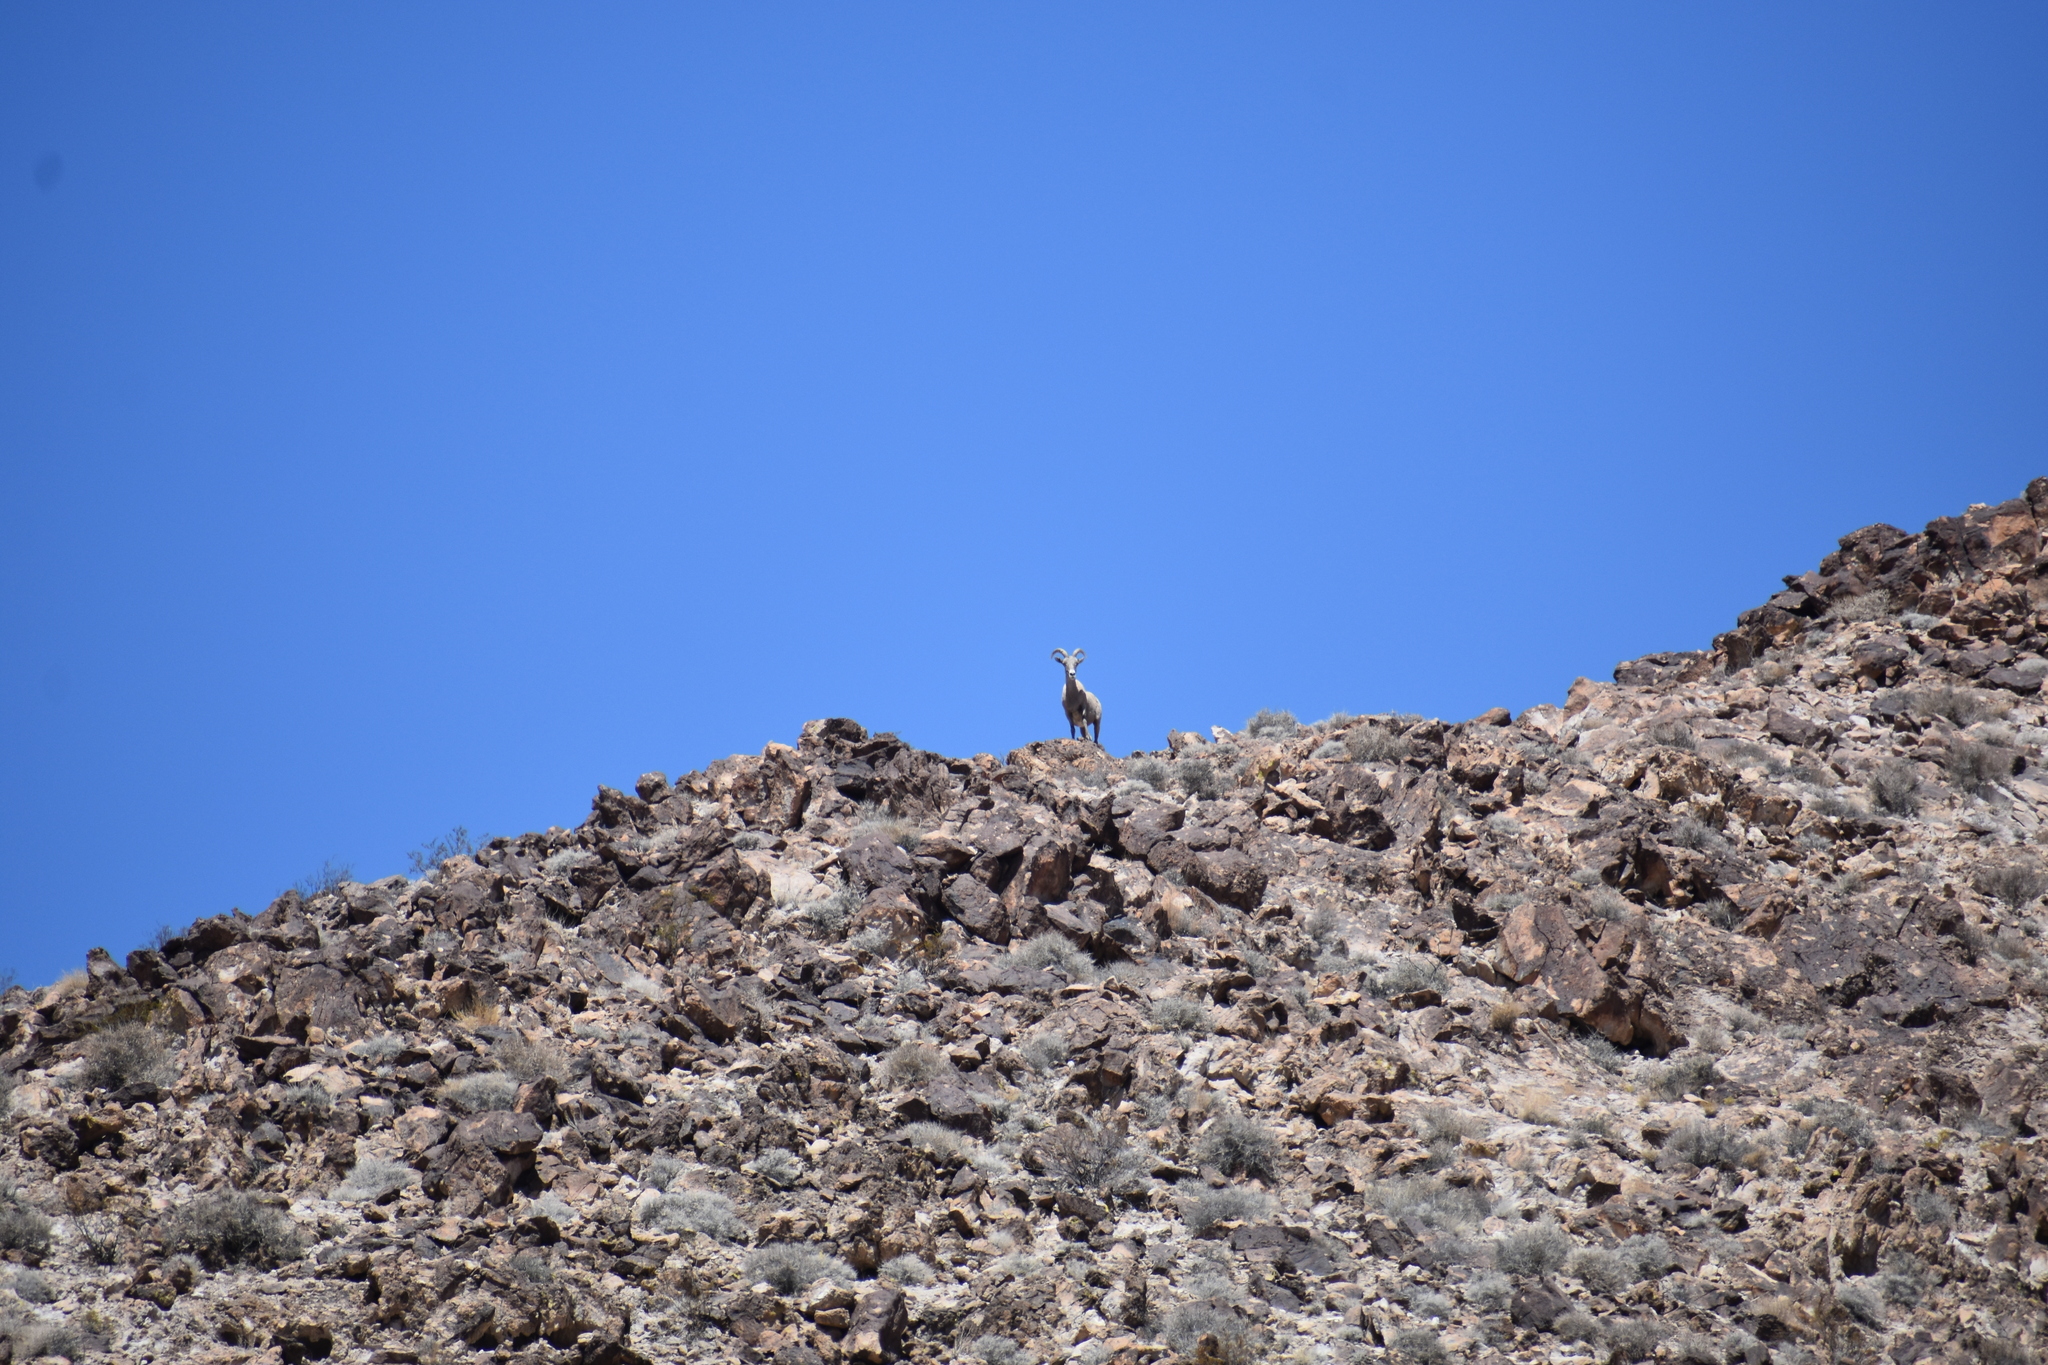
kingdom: Animalia
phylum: Chordata
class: Mammalia
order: Artiodactyla
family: Bovidae
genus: Ovis
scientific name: Ovis canadensis
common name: Bighorn sheep
